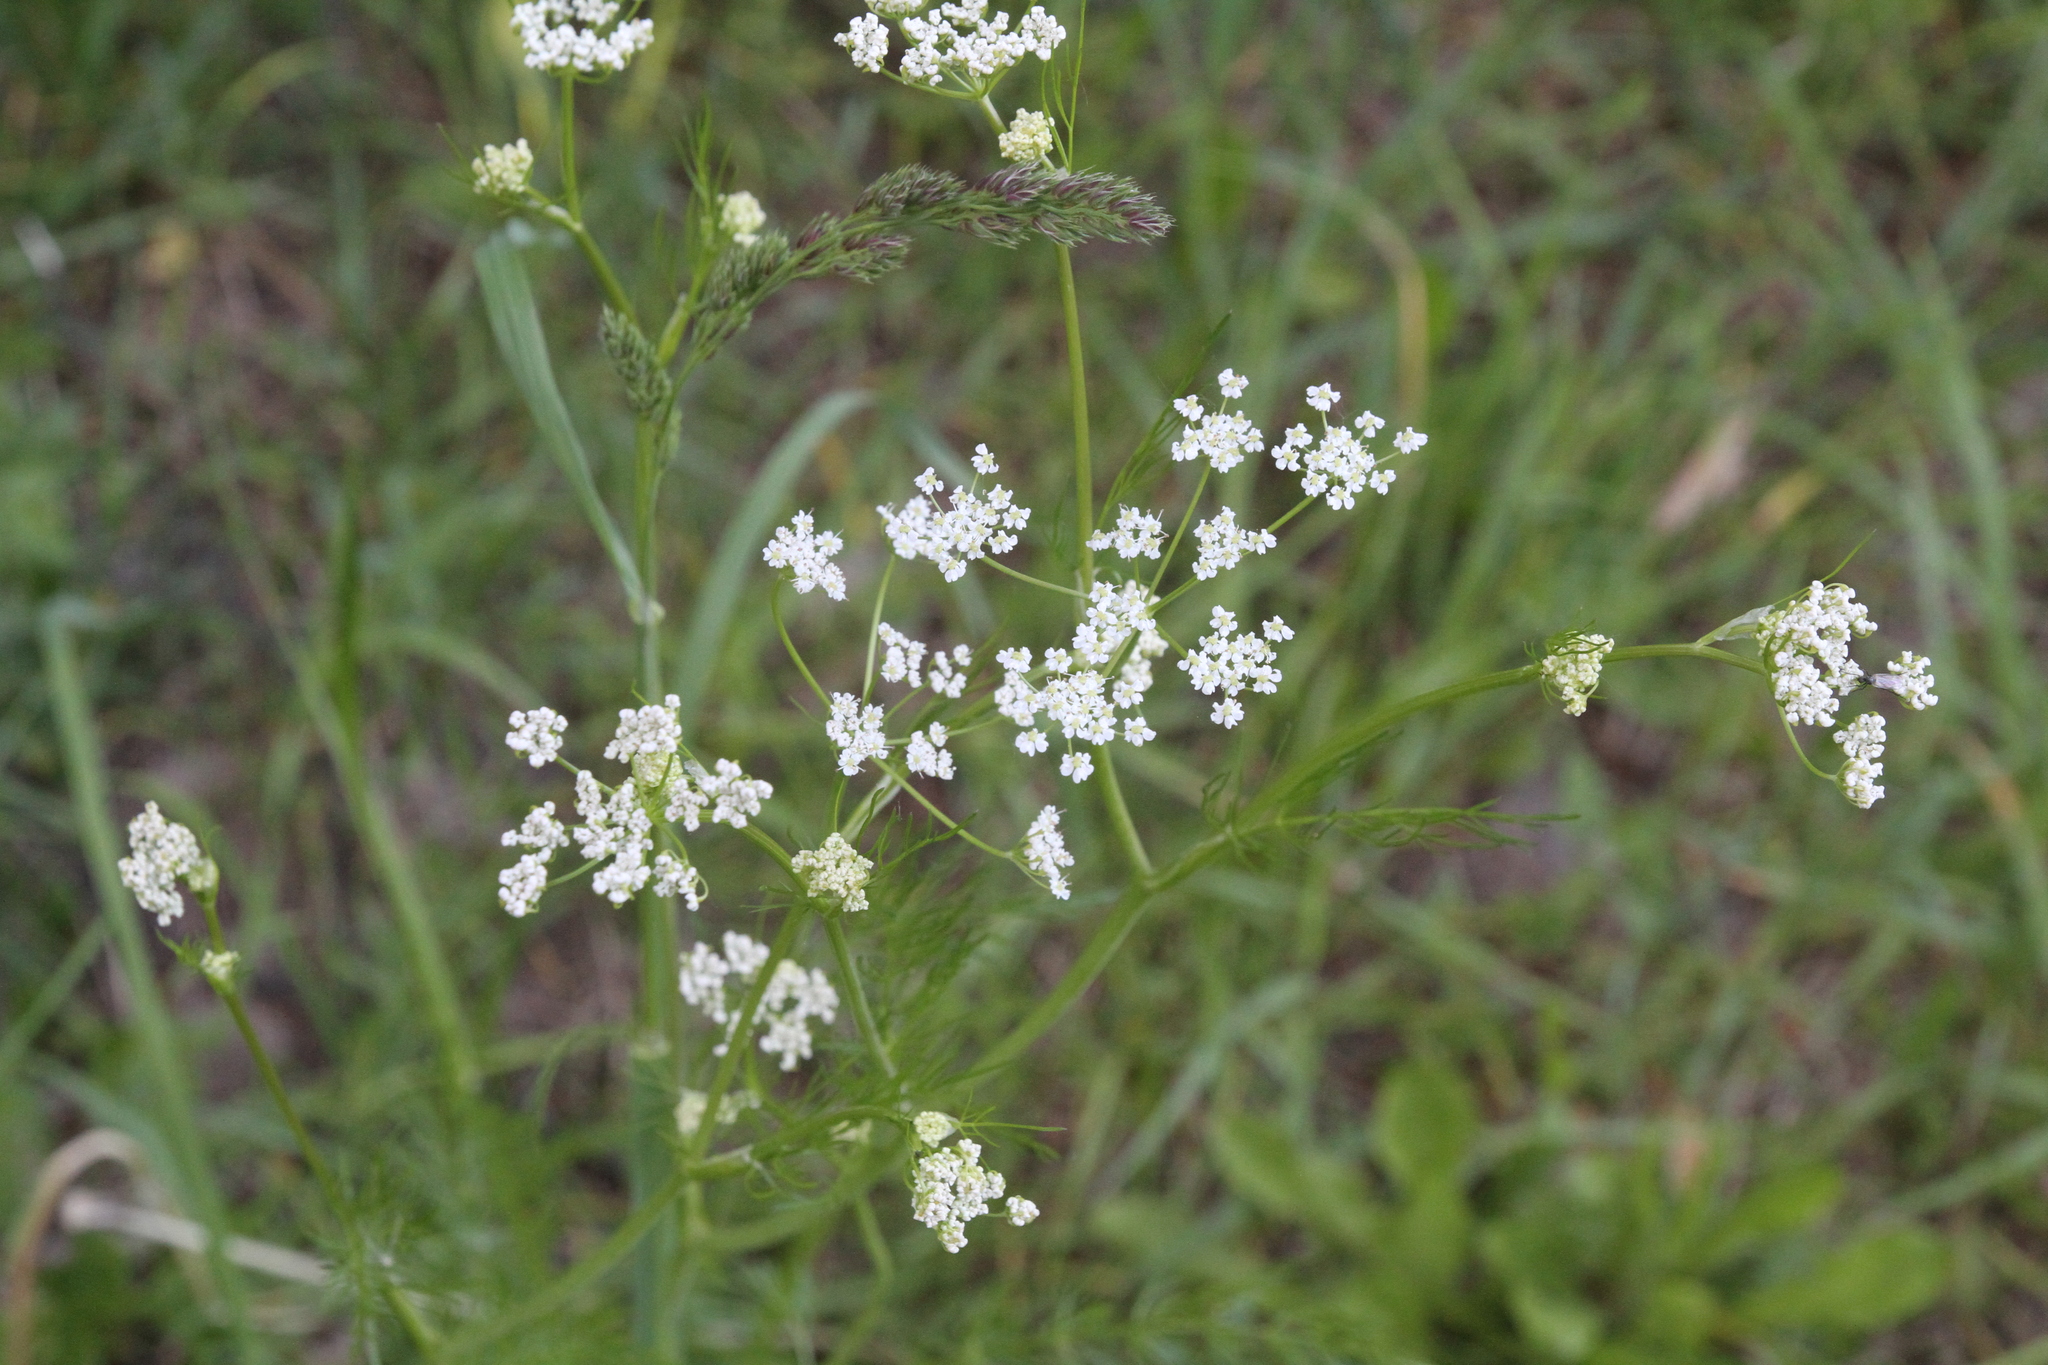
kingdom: Plantae
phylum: Tracheophyta
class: Magnoliopsida
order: Apiales
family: Apiaceae
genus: Carum
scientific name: Carum carvi
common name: Caraway
